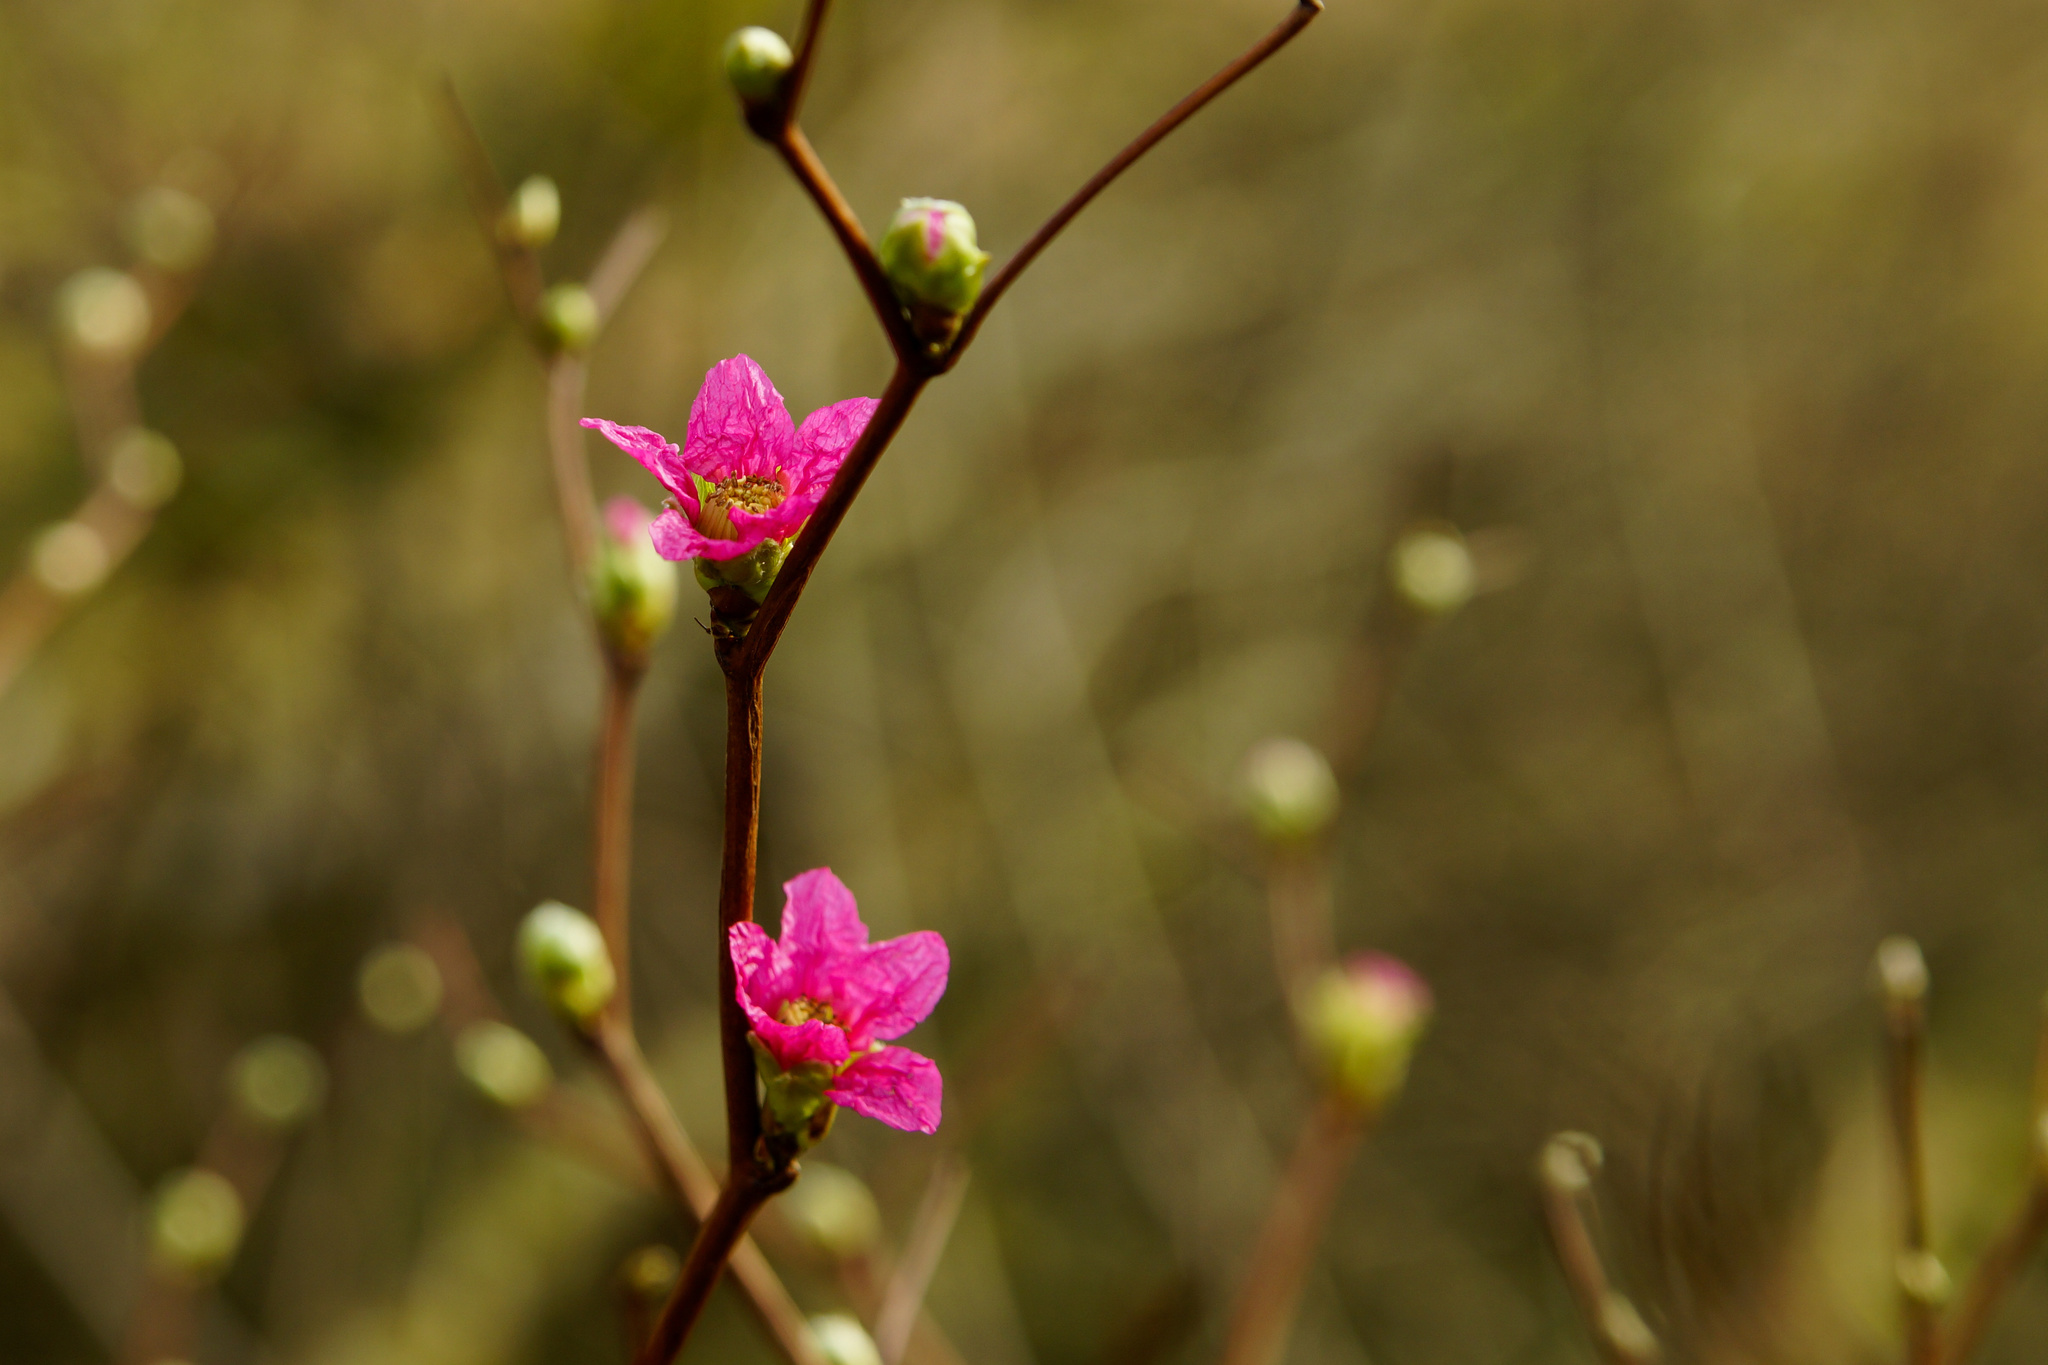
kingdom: Plantae
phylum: Tracheophyta
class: Magnoliopsida
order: Rosales
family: Rosaceae
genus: Rubus
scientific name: Rubus spectabilis
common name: Salmonberry
